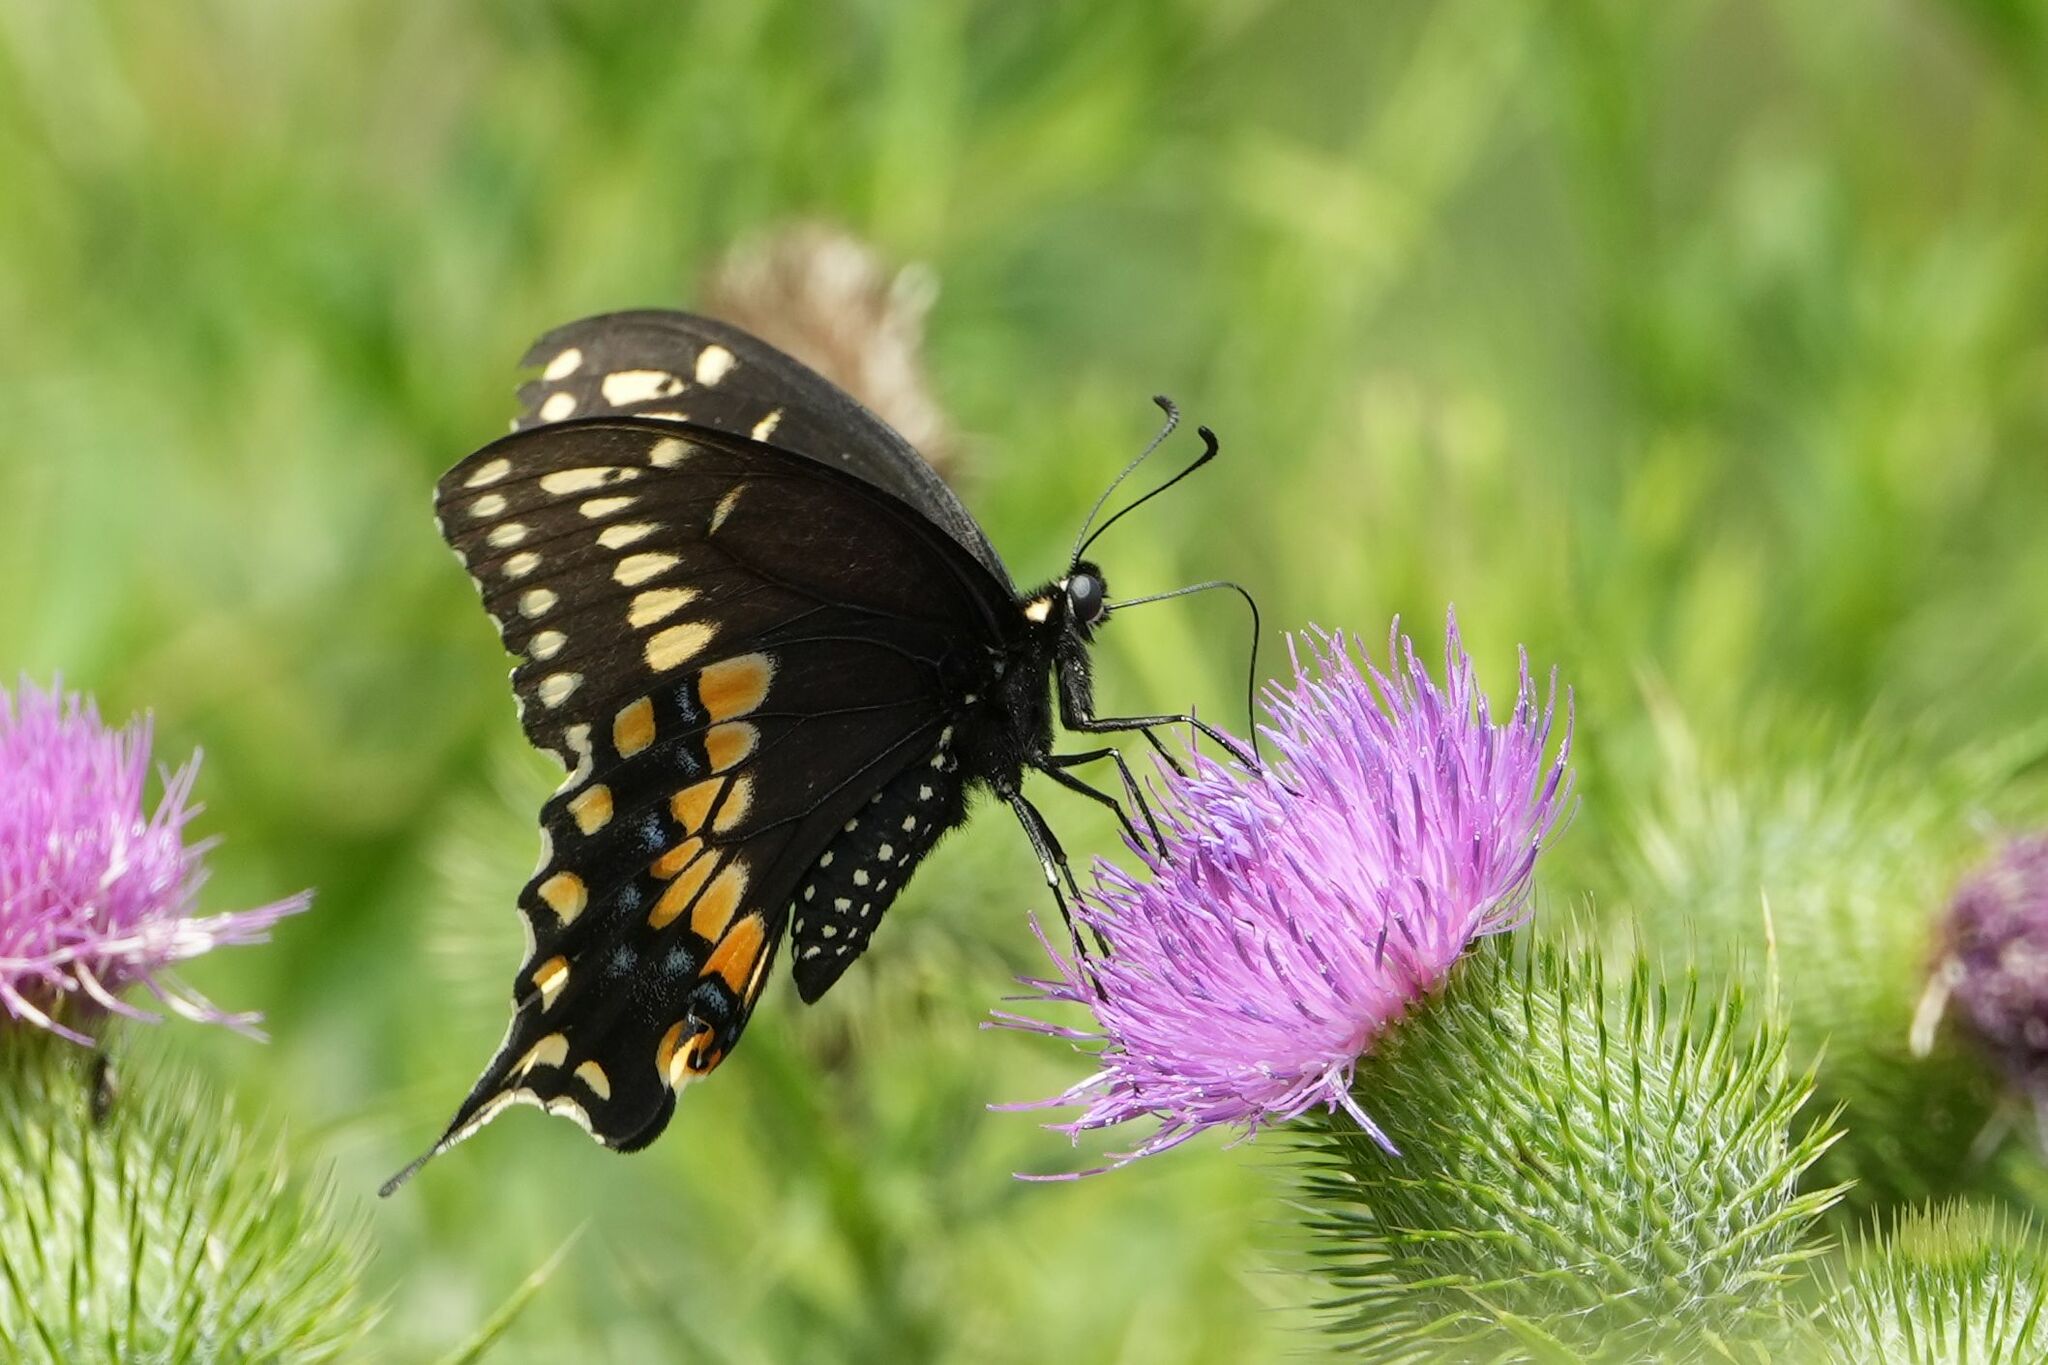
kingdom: Animalia
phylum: Arthropoda
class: Insecta
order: Lepidoptera
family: Papilionidae
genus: Papilio
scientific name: Papilio polyxenes
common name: Black swallowtail
